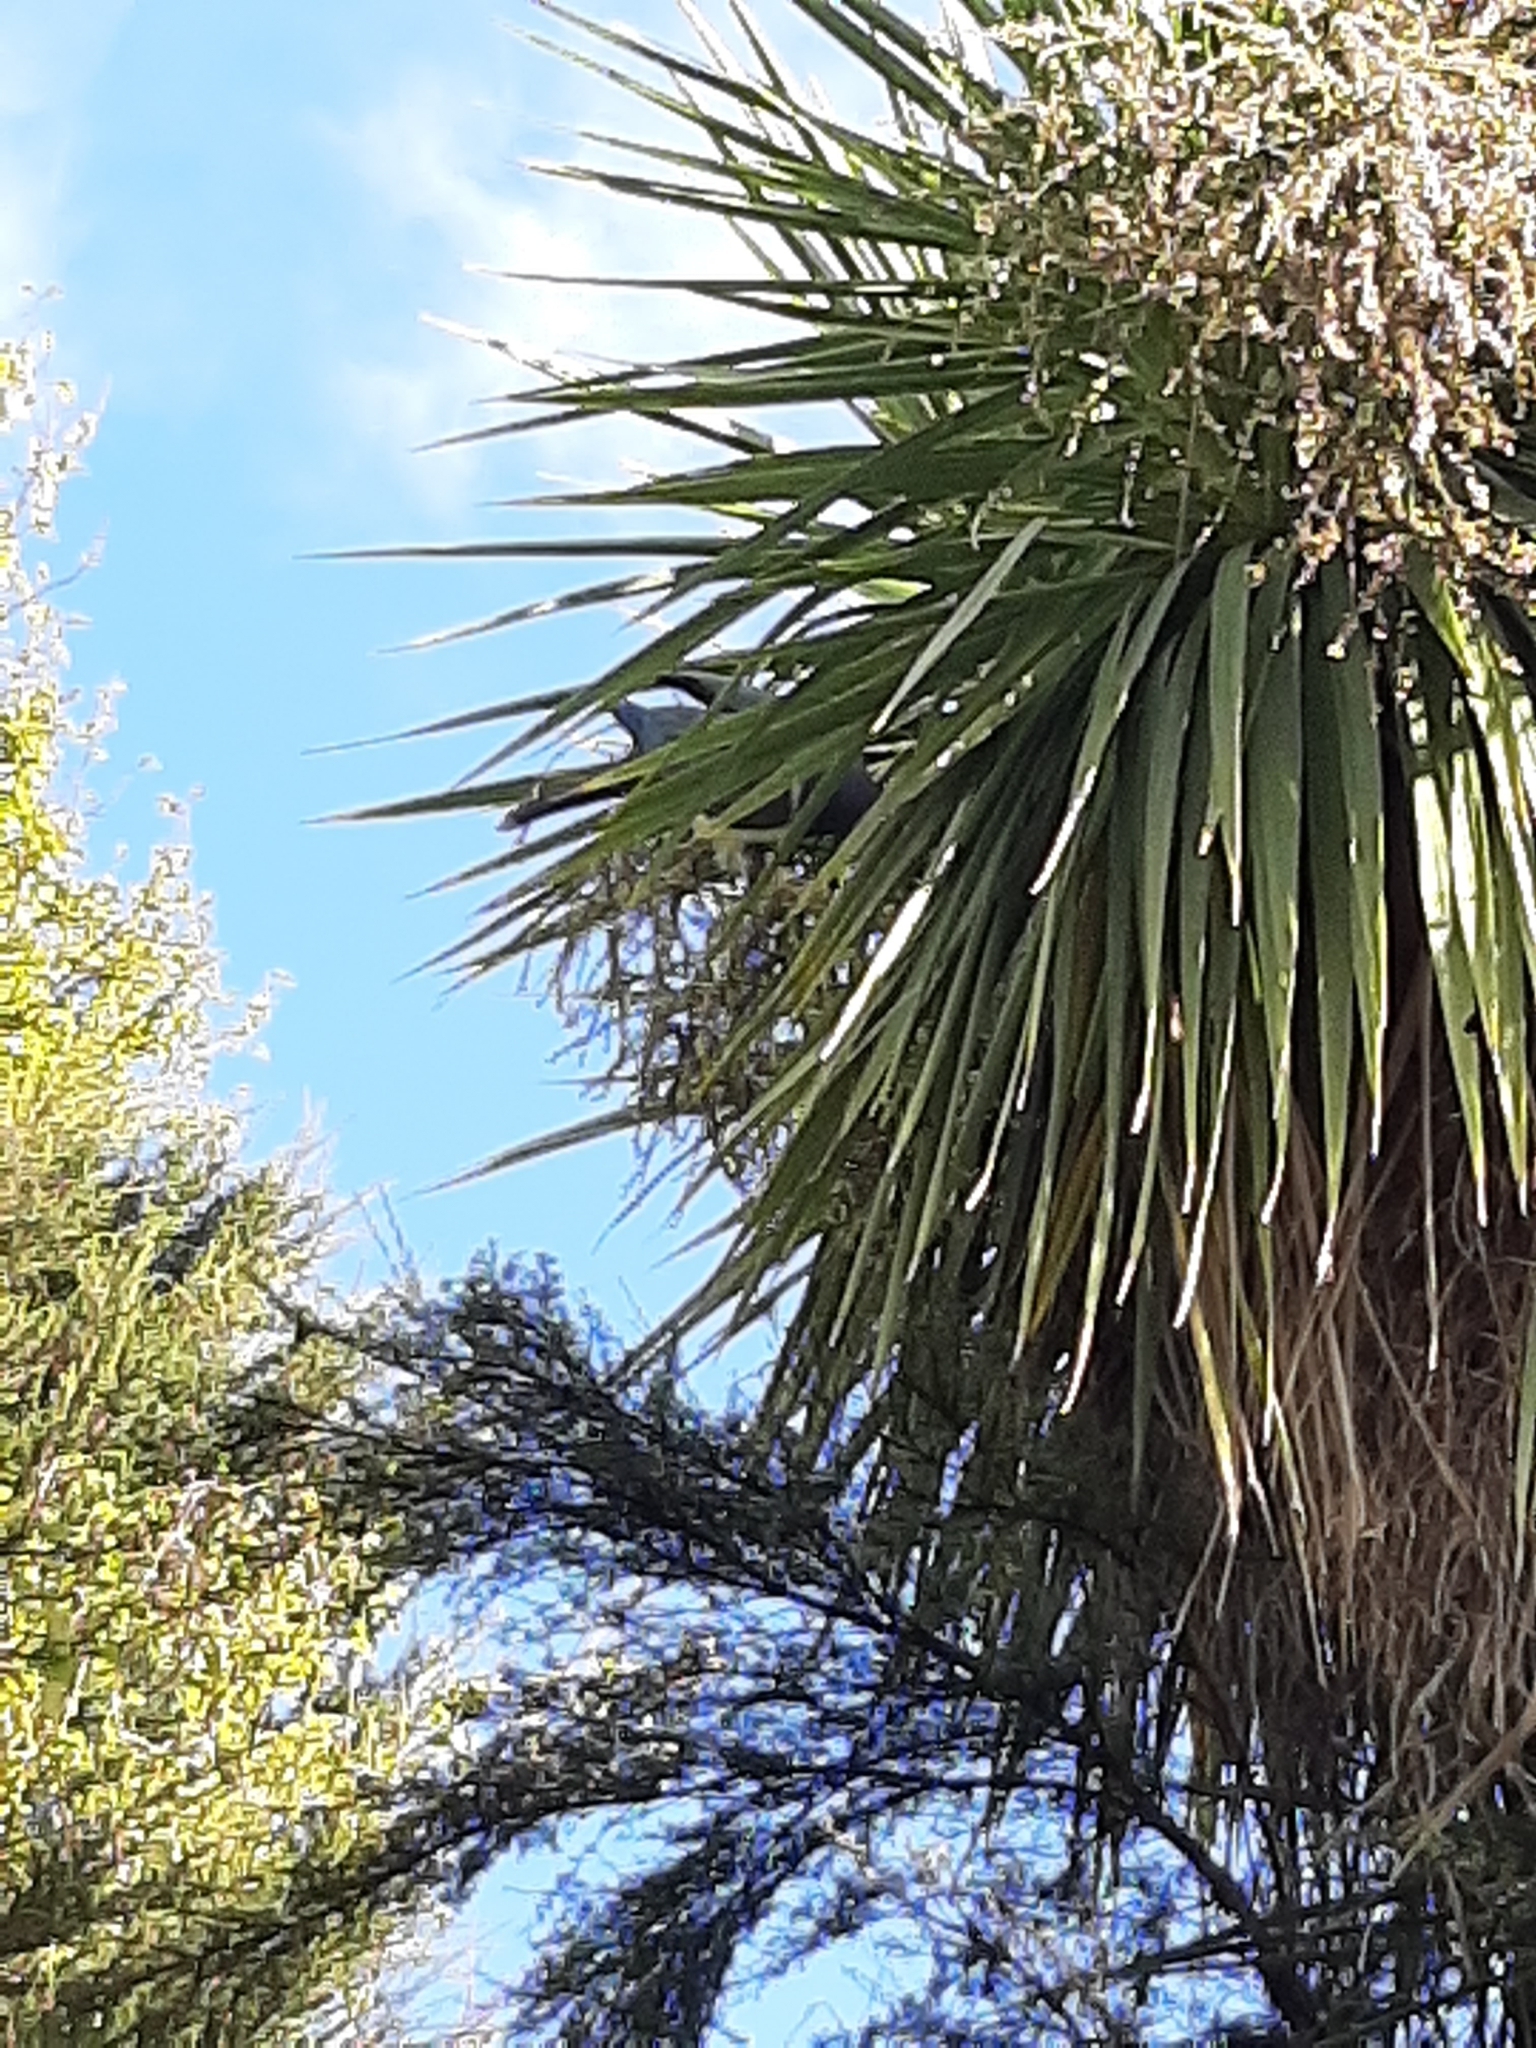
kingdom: Animalia
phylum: Chordata
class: Aves
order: Columbiformes
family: Columbidae
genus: Hemiphaga
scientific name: Hemiphaga novaeseelandiae
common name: New zealand pigeon
